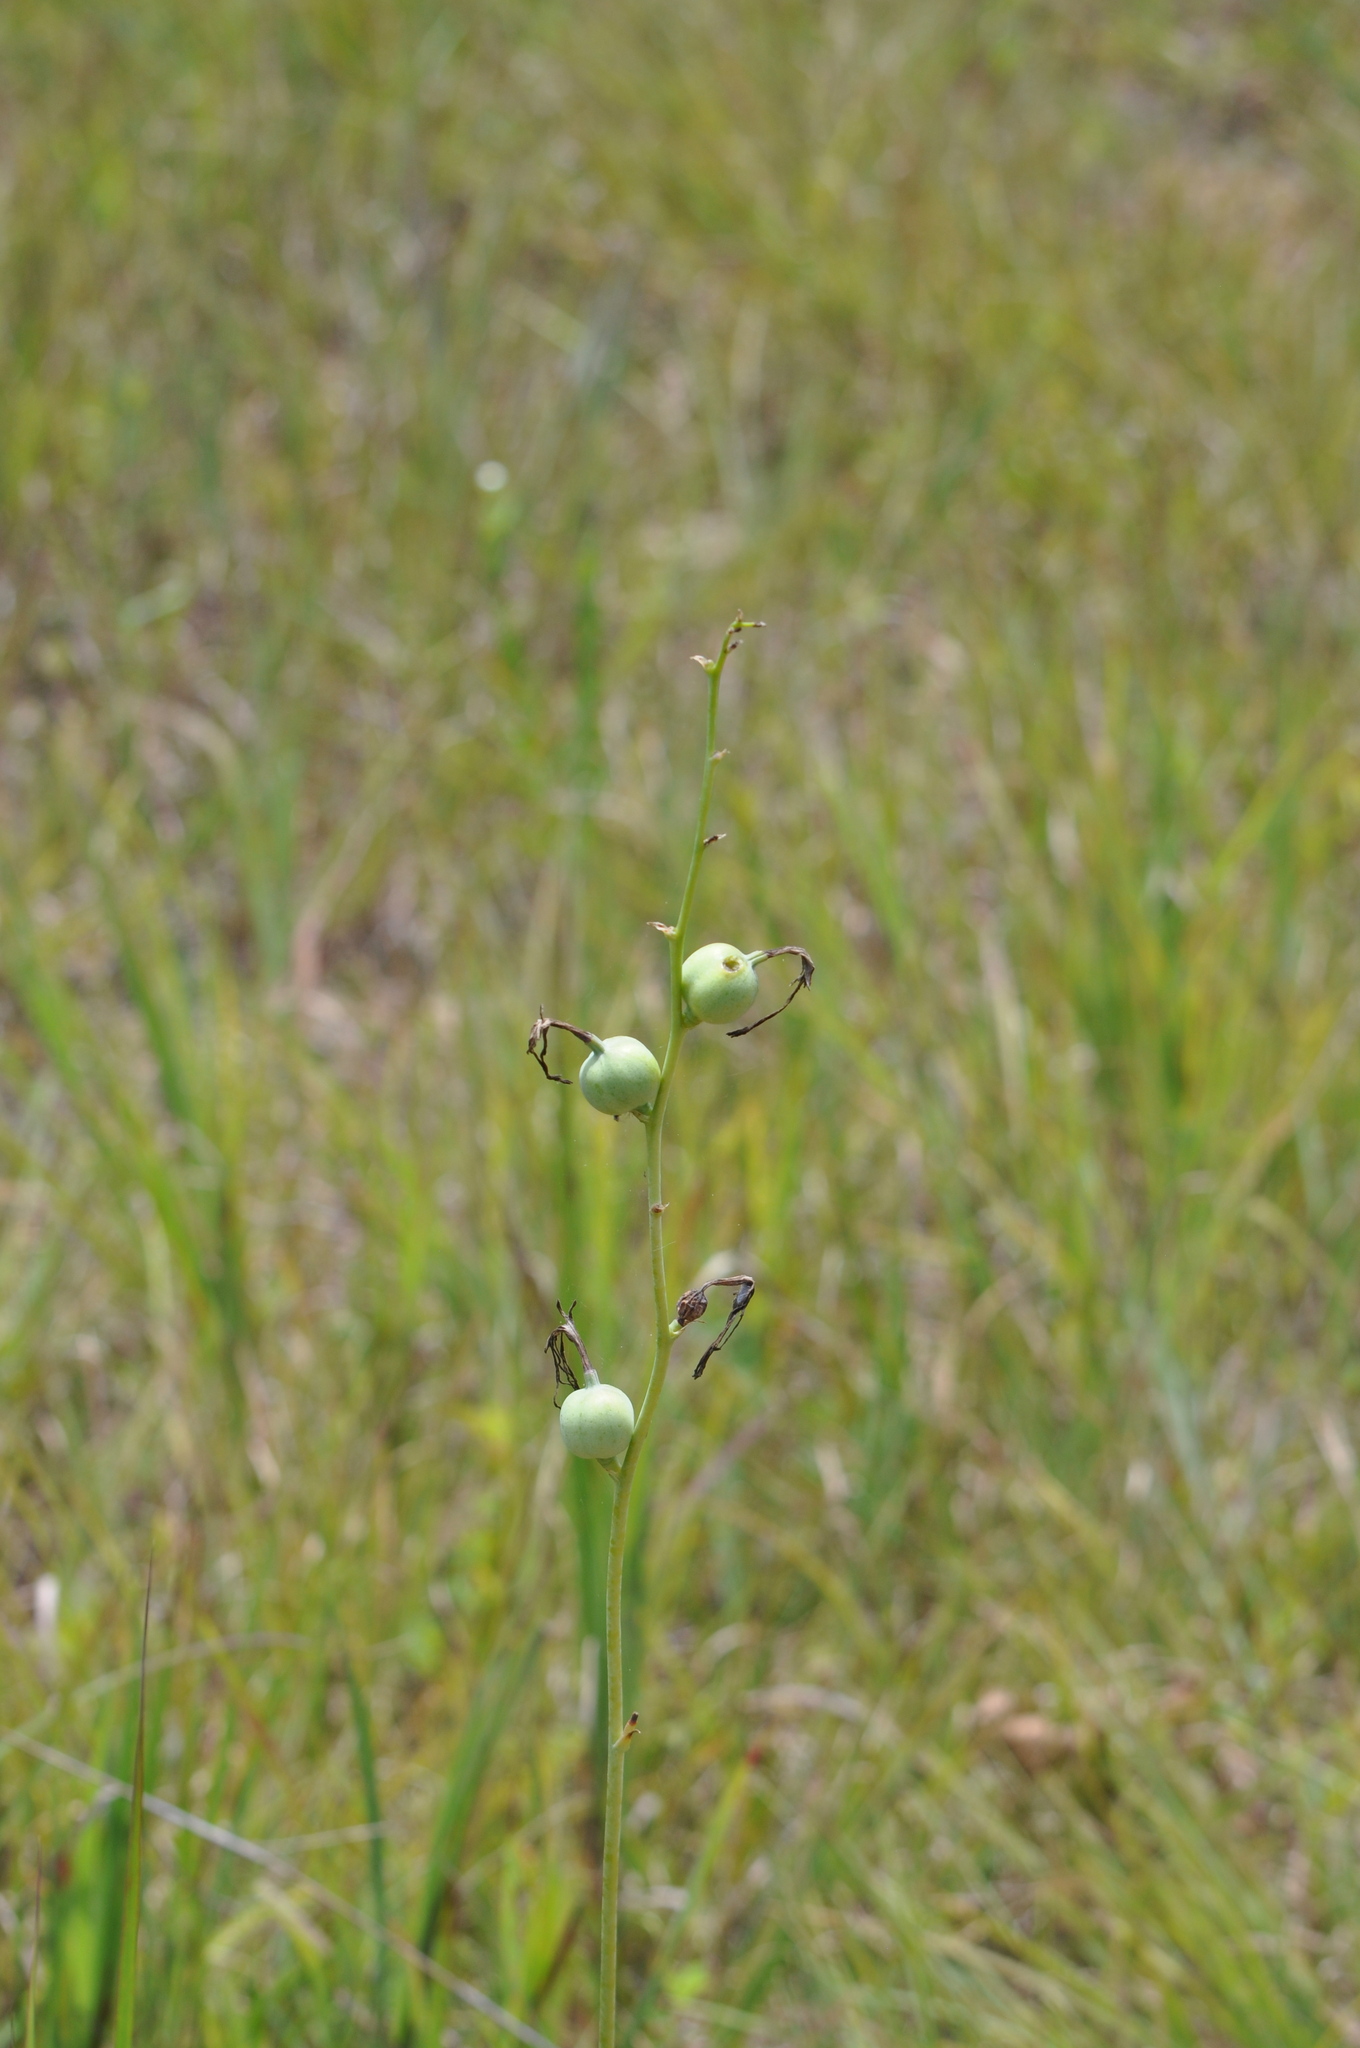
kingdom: Plantae
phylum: Tracheophyta
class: Liliopsida
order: Asparagales
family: Asparagaceae
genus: Agave
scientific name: Agave virginica
